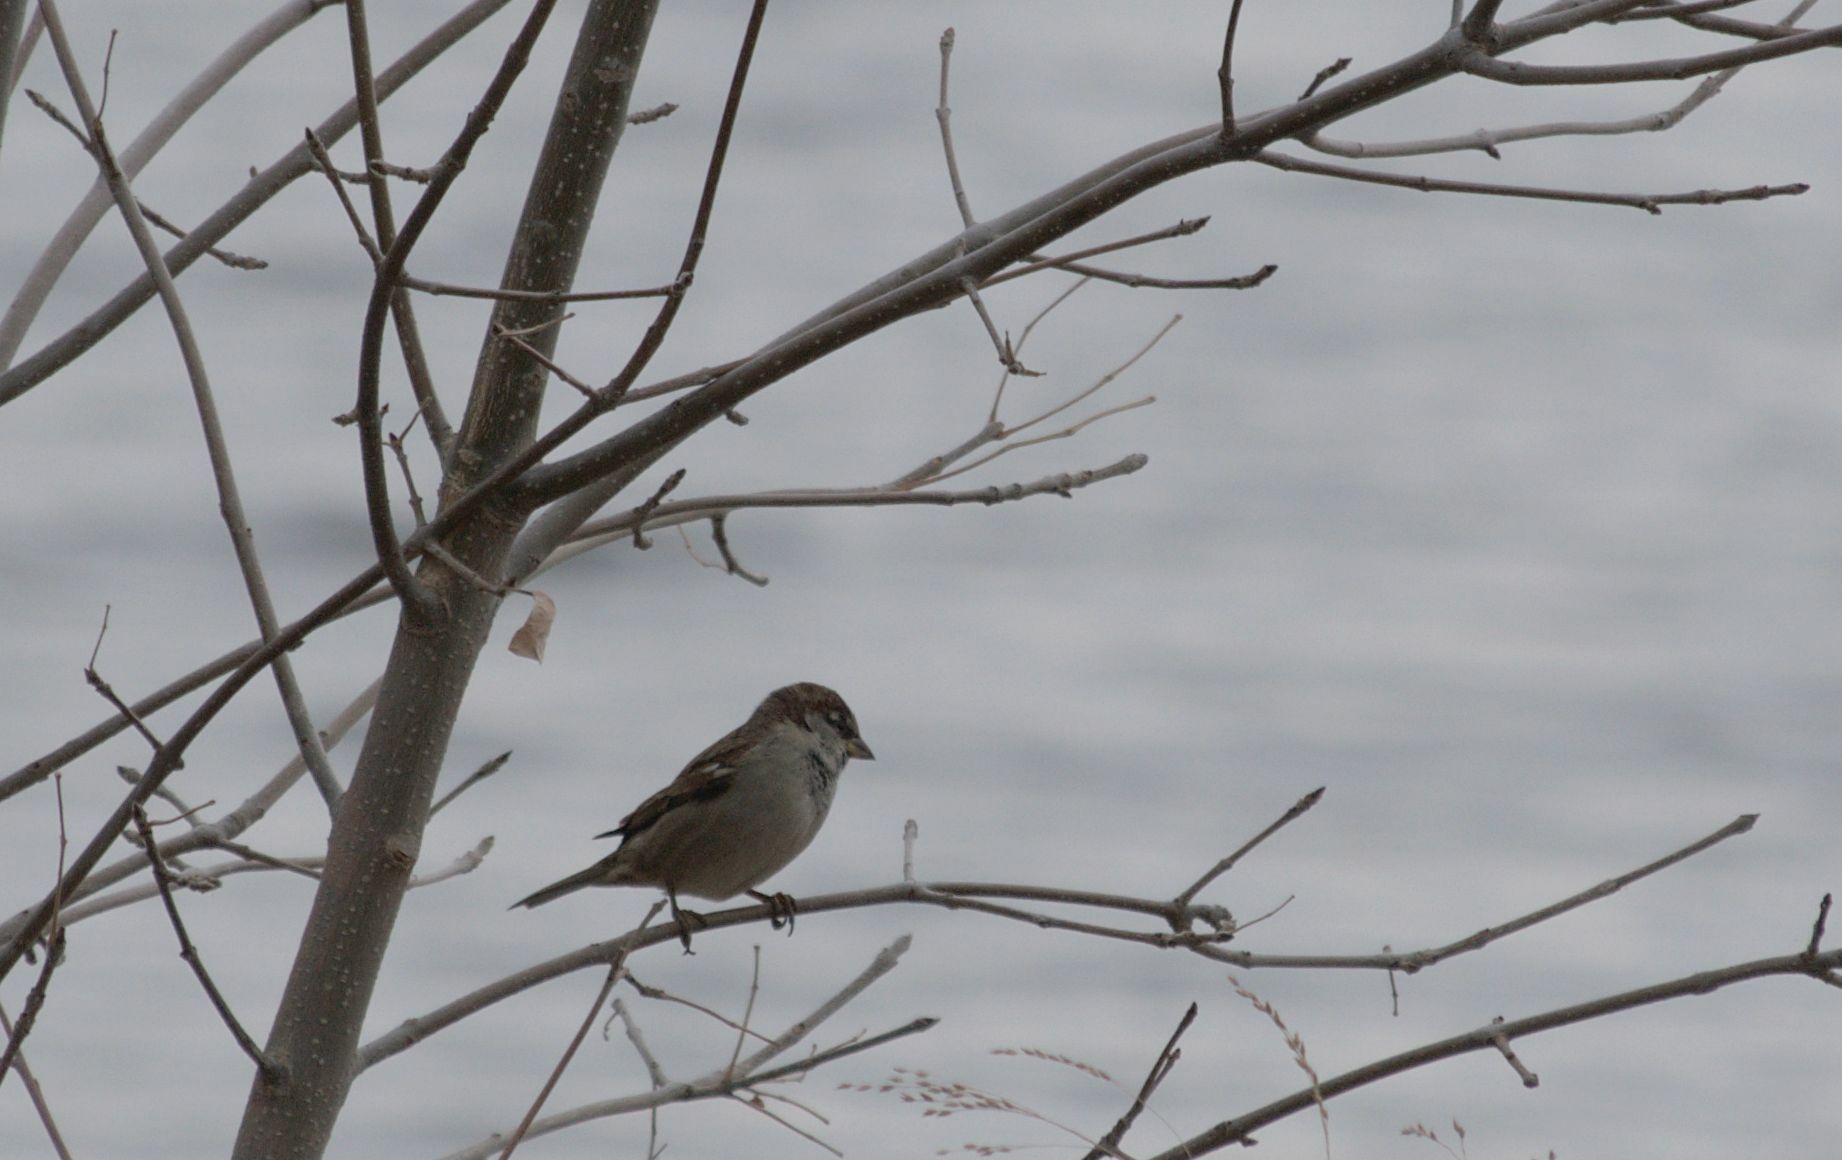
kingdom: Animalia
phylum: Chordata
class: Aves
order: Passeriformes
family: Passeridae
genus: Passer
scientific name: Passer domesticus
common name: House sparrow
